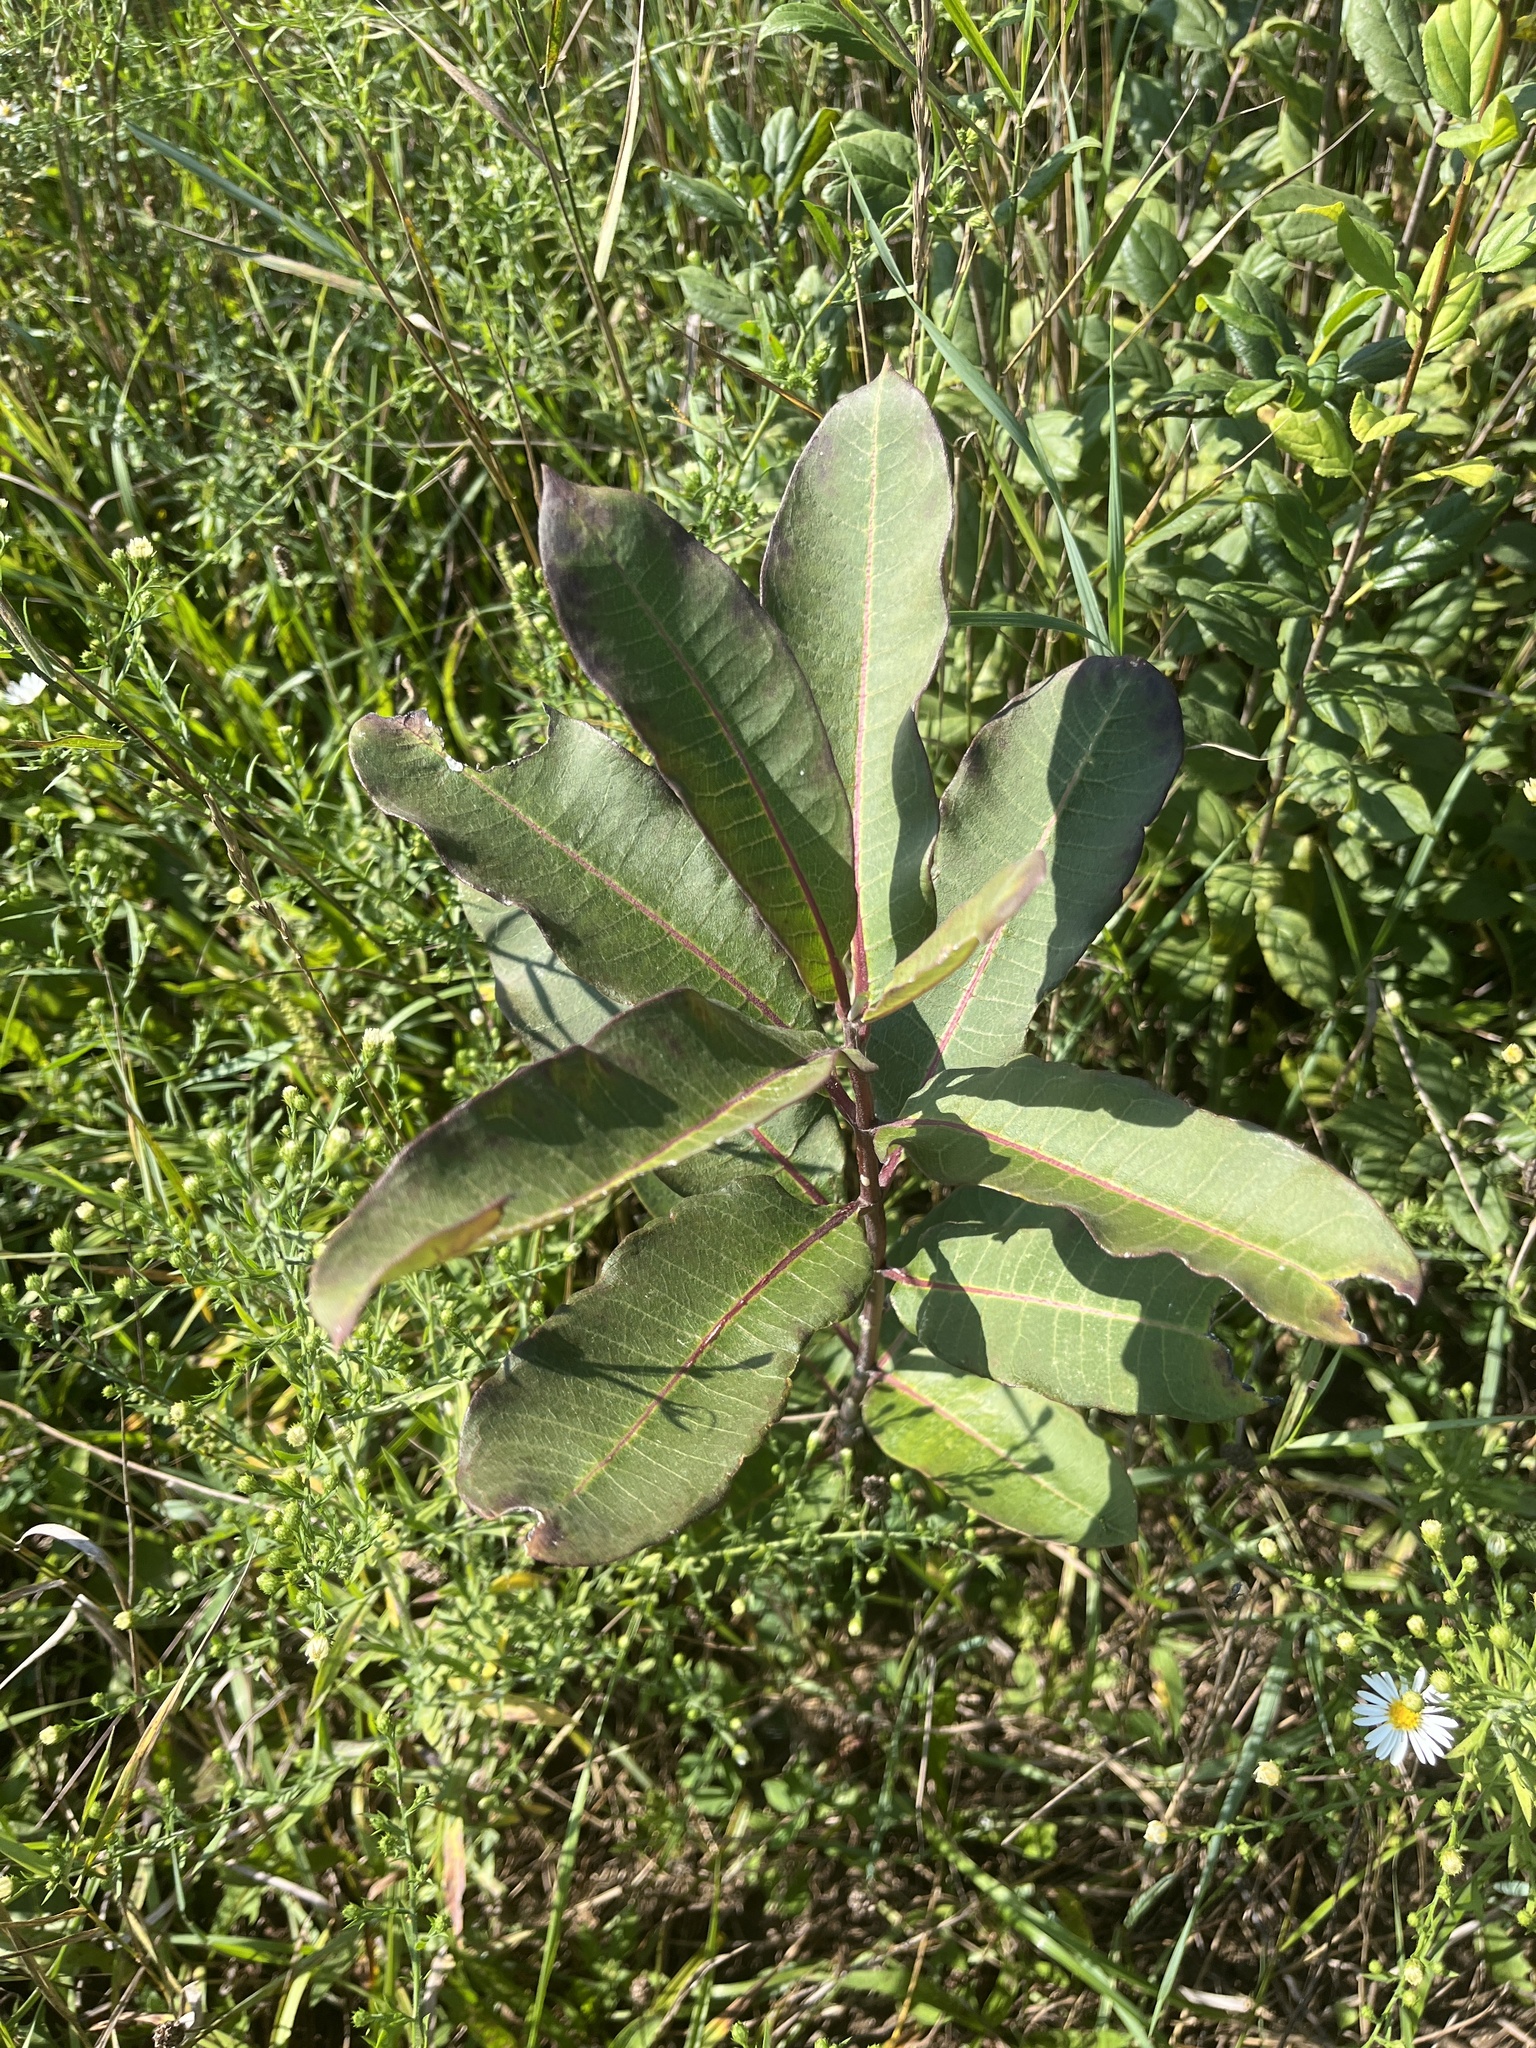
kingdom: Plantae
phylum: Tracheophyta
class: Magnoliopsida
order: Gentianales
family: Apocynaceae
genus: Asclepias
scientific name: Asclepias syriaca
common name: Common milkweed
